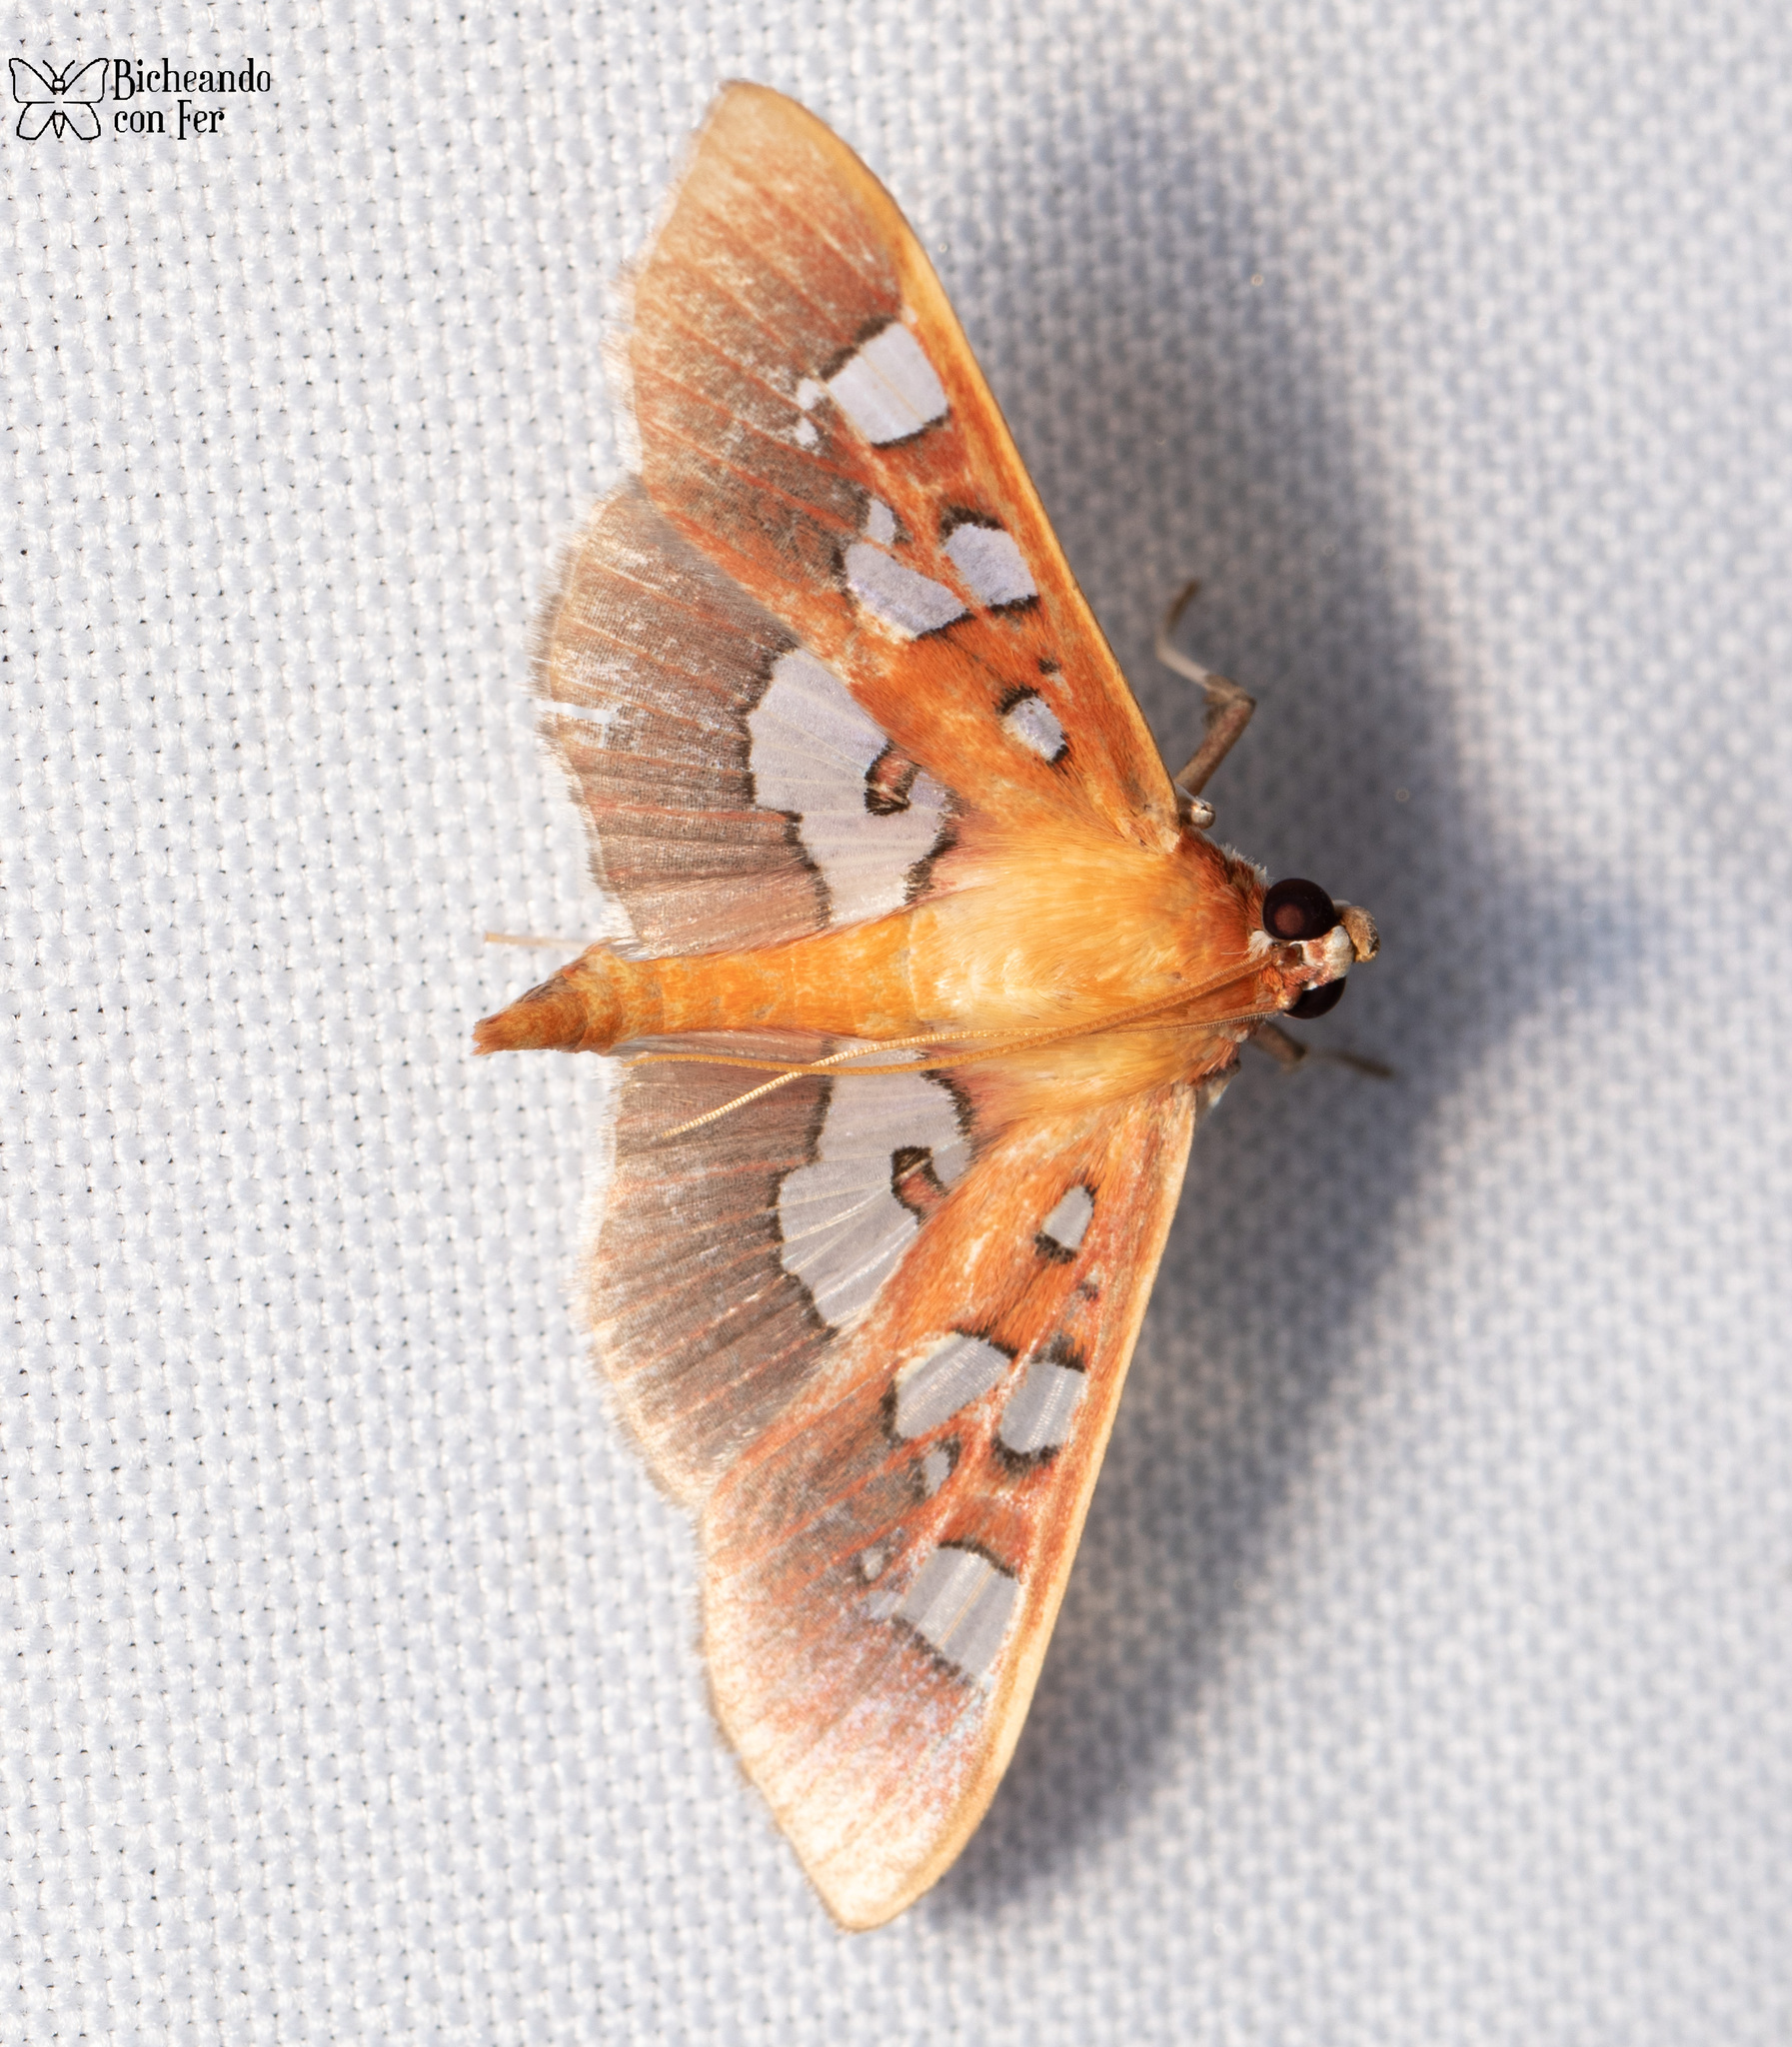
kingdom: Animalia
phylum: Arthropoda
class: Insecta
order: Lepidoptera
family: Crambidae
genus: Phostria
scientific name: Phostria tedea
